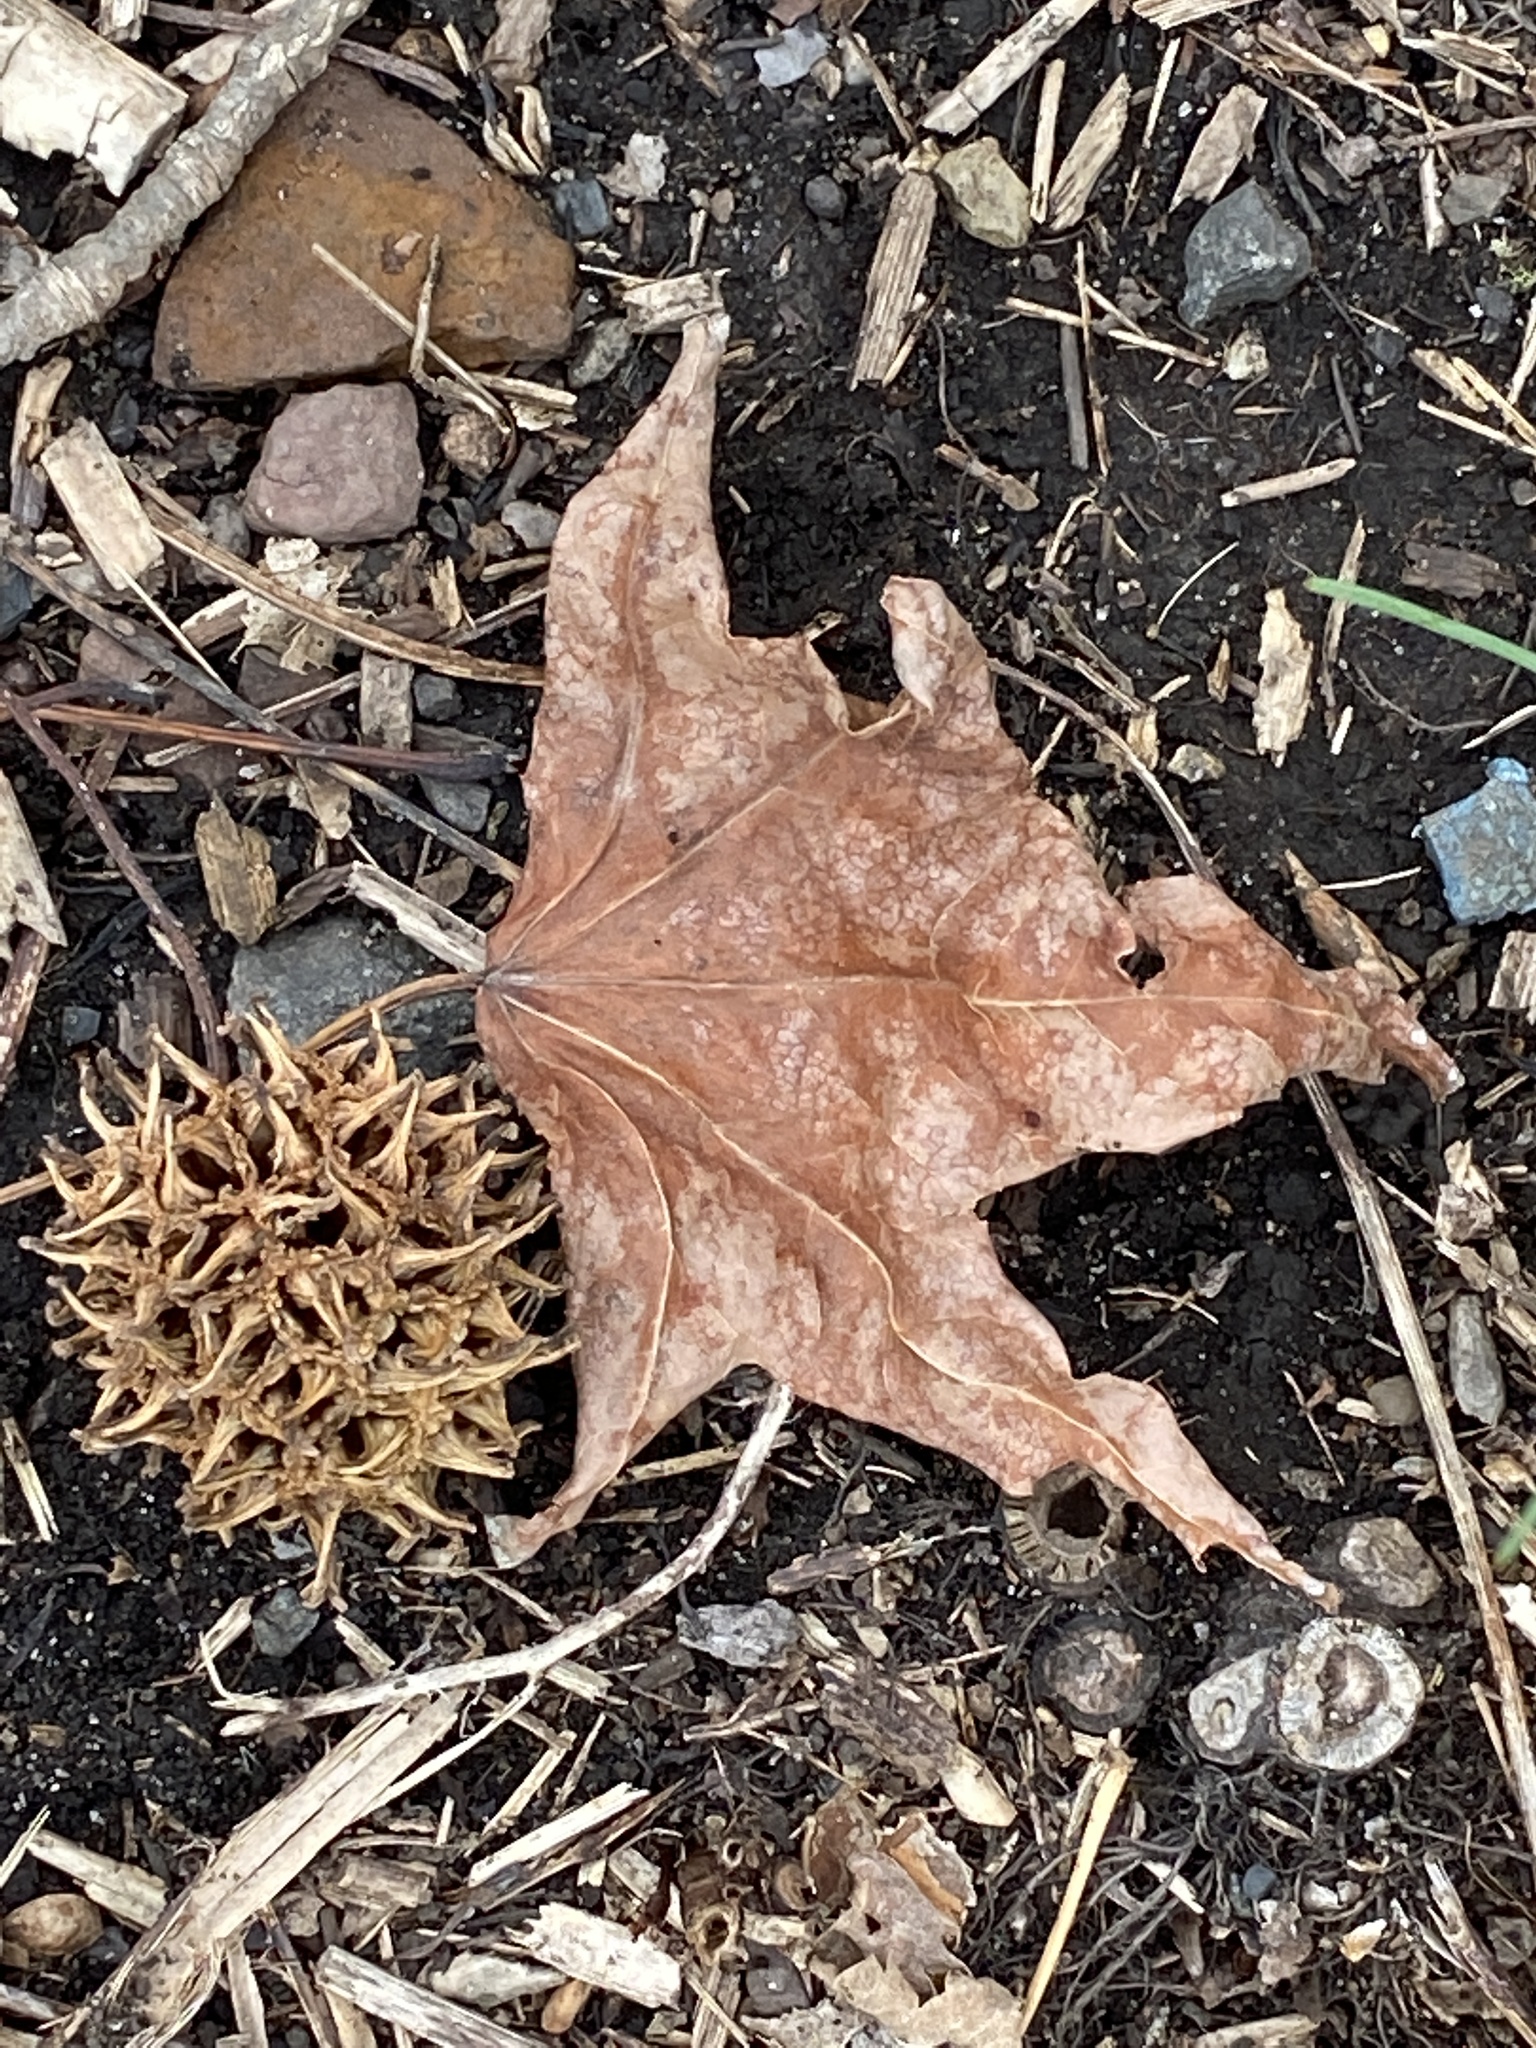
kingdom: Plantae
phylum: Tracheophyta
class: Magnoliopsida
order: Saxifragales
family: Altingiaceae
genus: Liquidambar
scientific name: Liquidambar styraciflua
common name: Sweet gum
